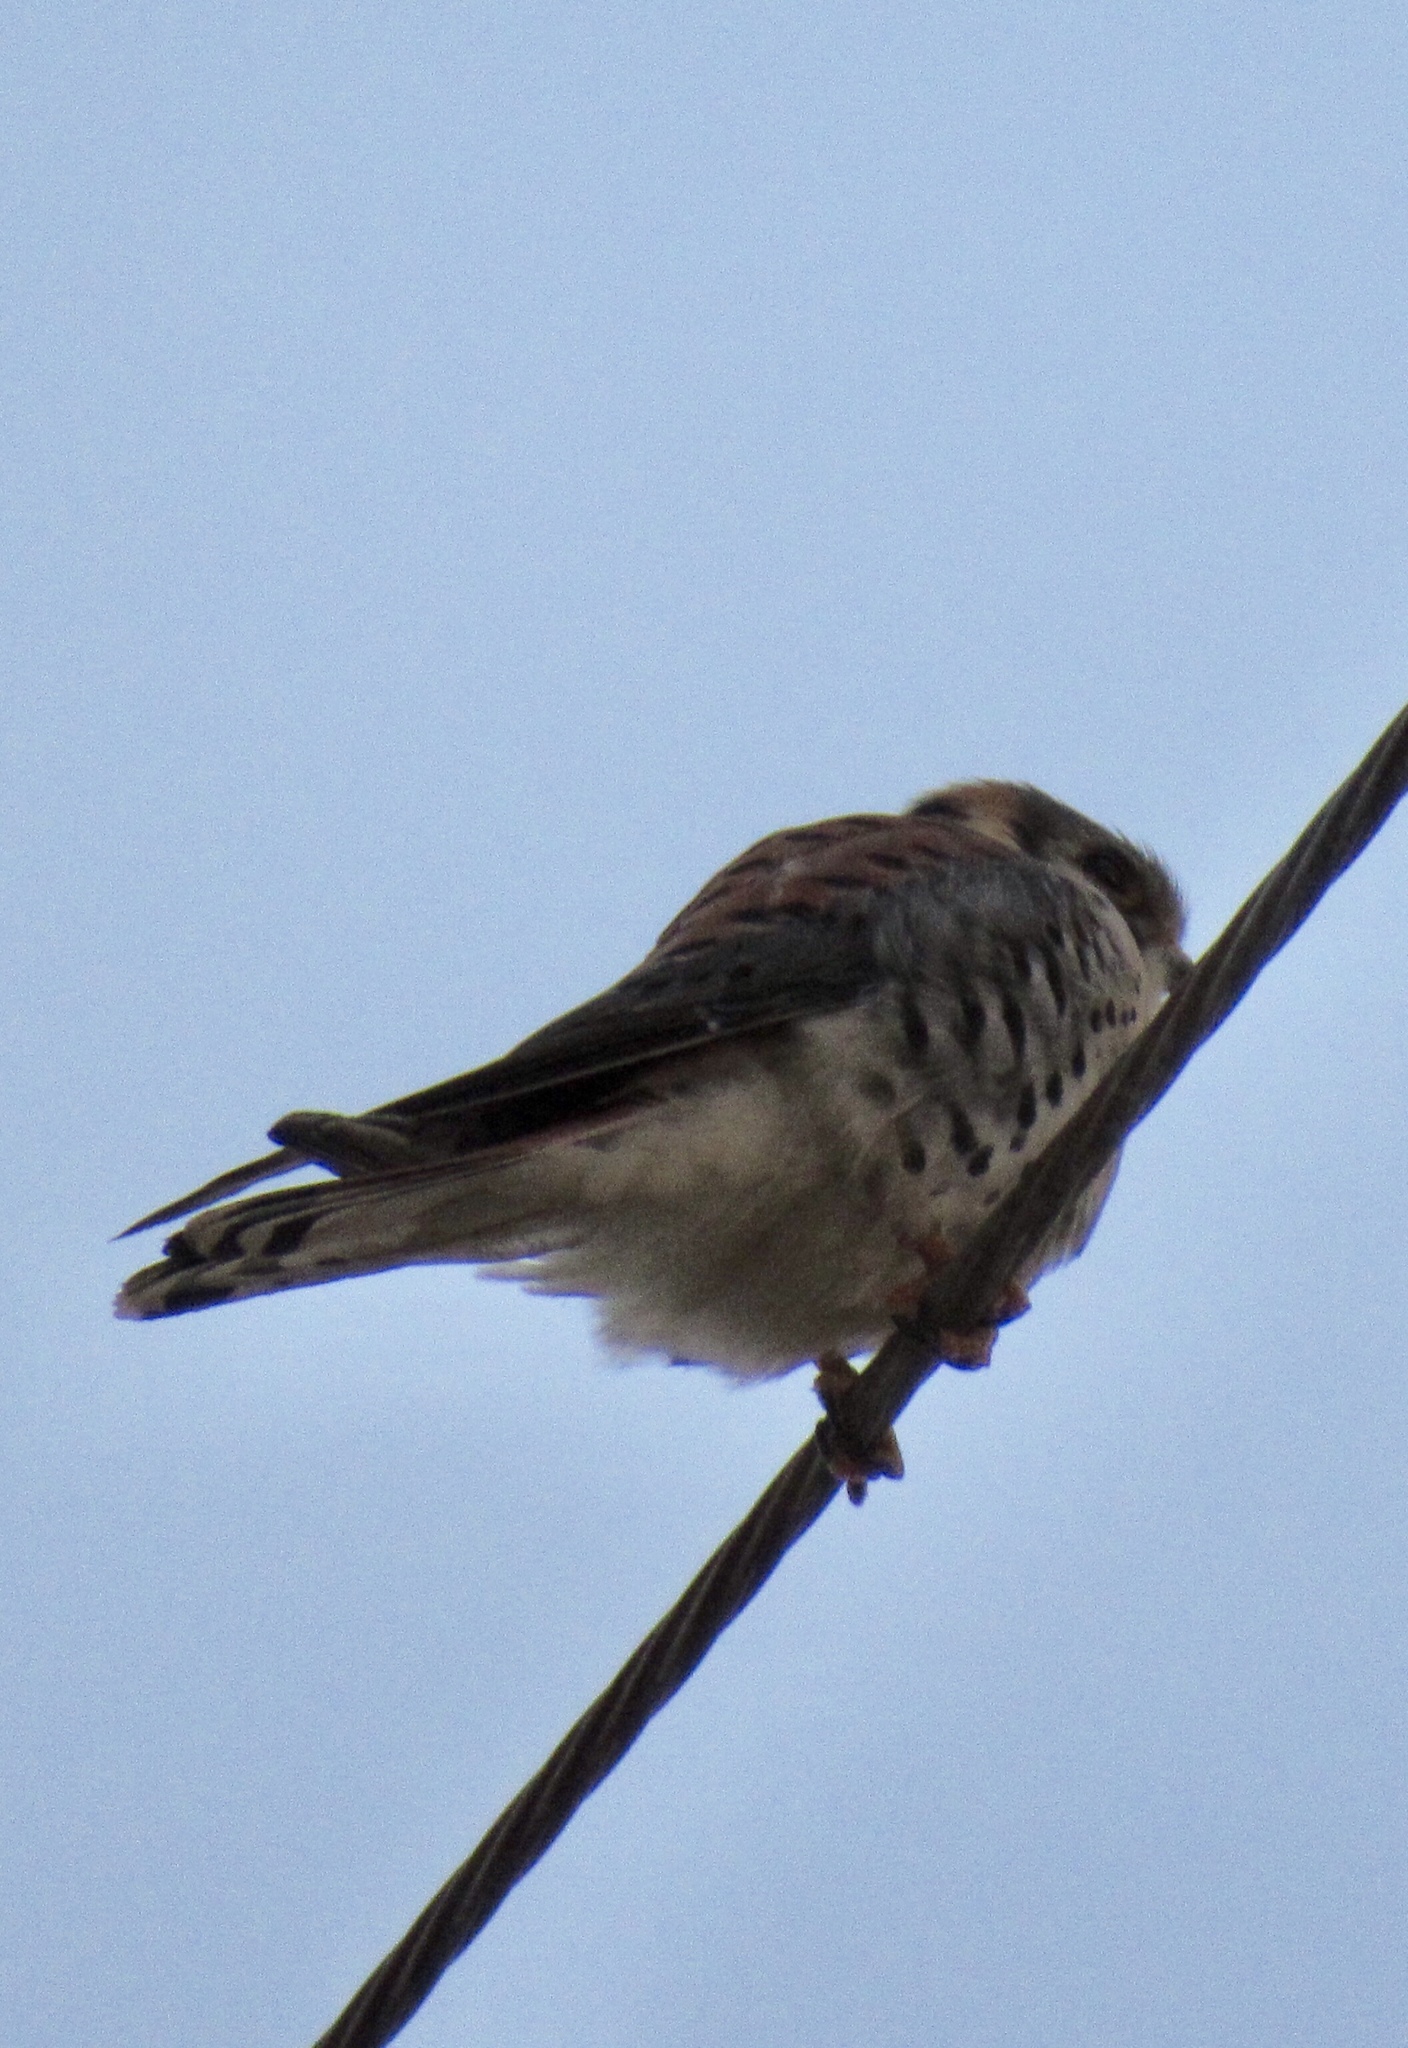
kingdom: Animalia
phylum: Chordata
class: Aves
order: Falconiformes
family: Falconidae
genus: Falco
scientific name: Falco sparverius
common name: American kestrel
